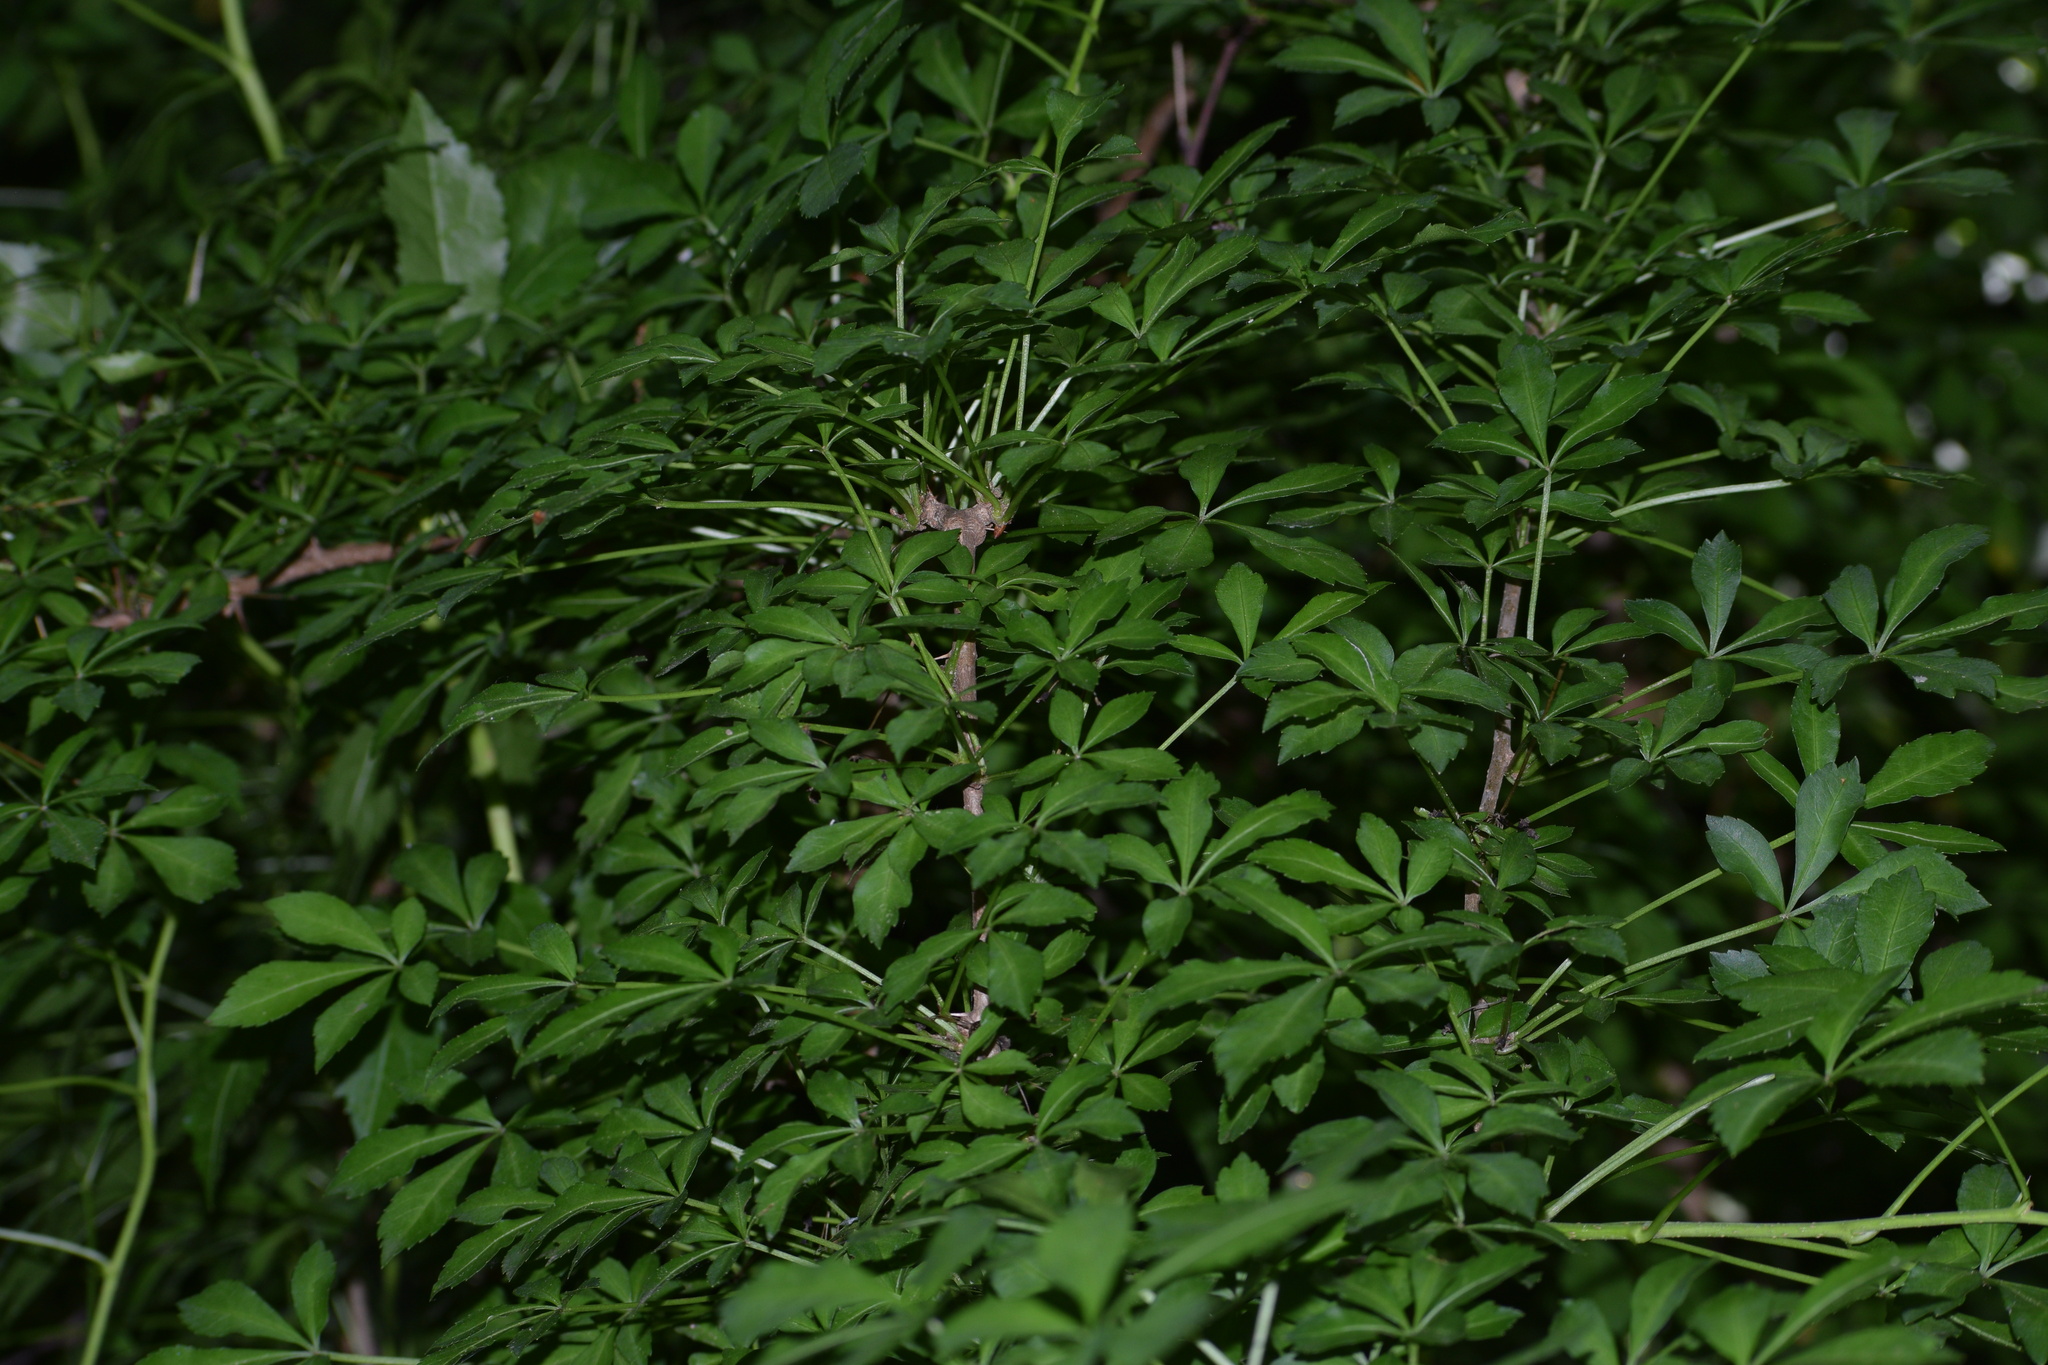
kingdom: Plantae
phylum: Tracheophyta
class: Magnoliopsida
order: Apiales
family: Araliaceae
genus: Eleutherococcus
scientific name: Eleutherococcus sieboldianus
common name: Ginseng
